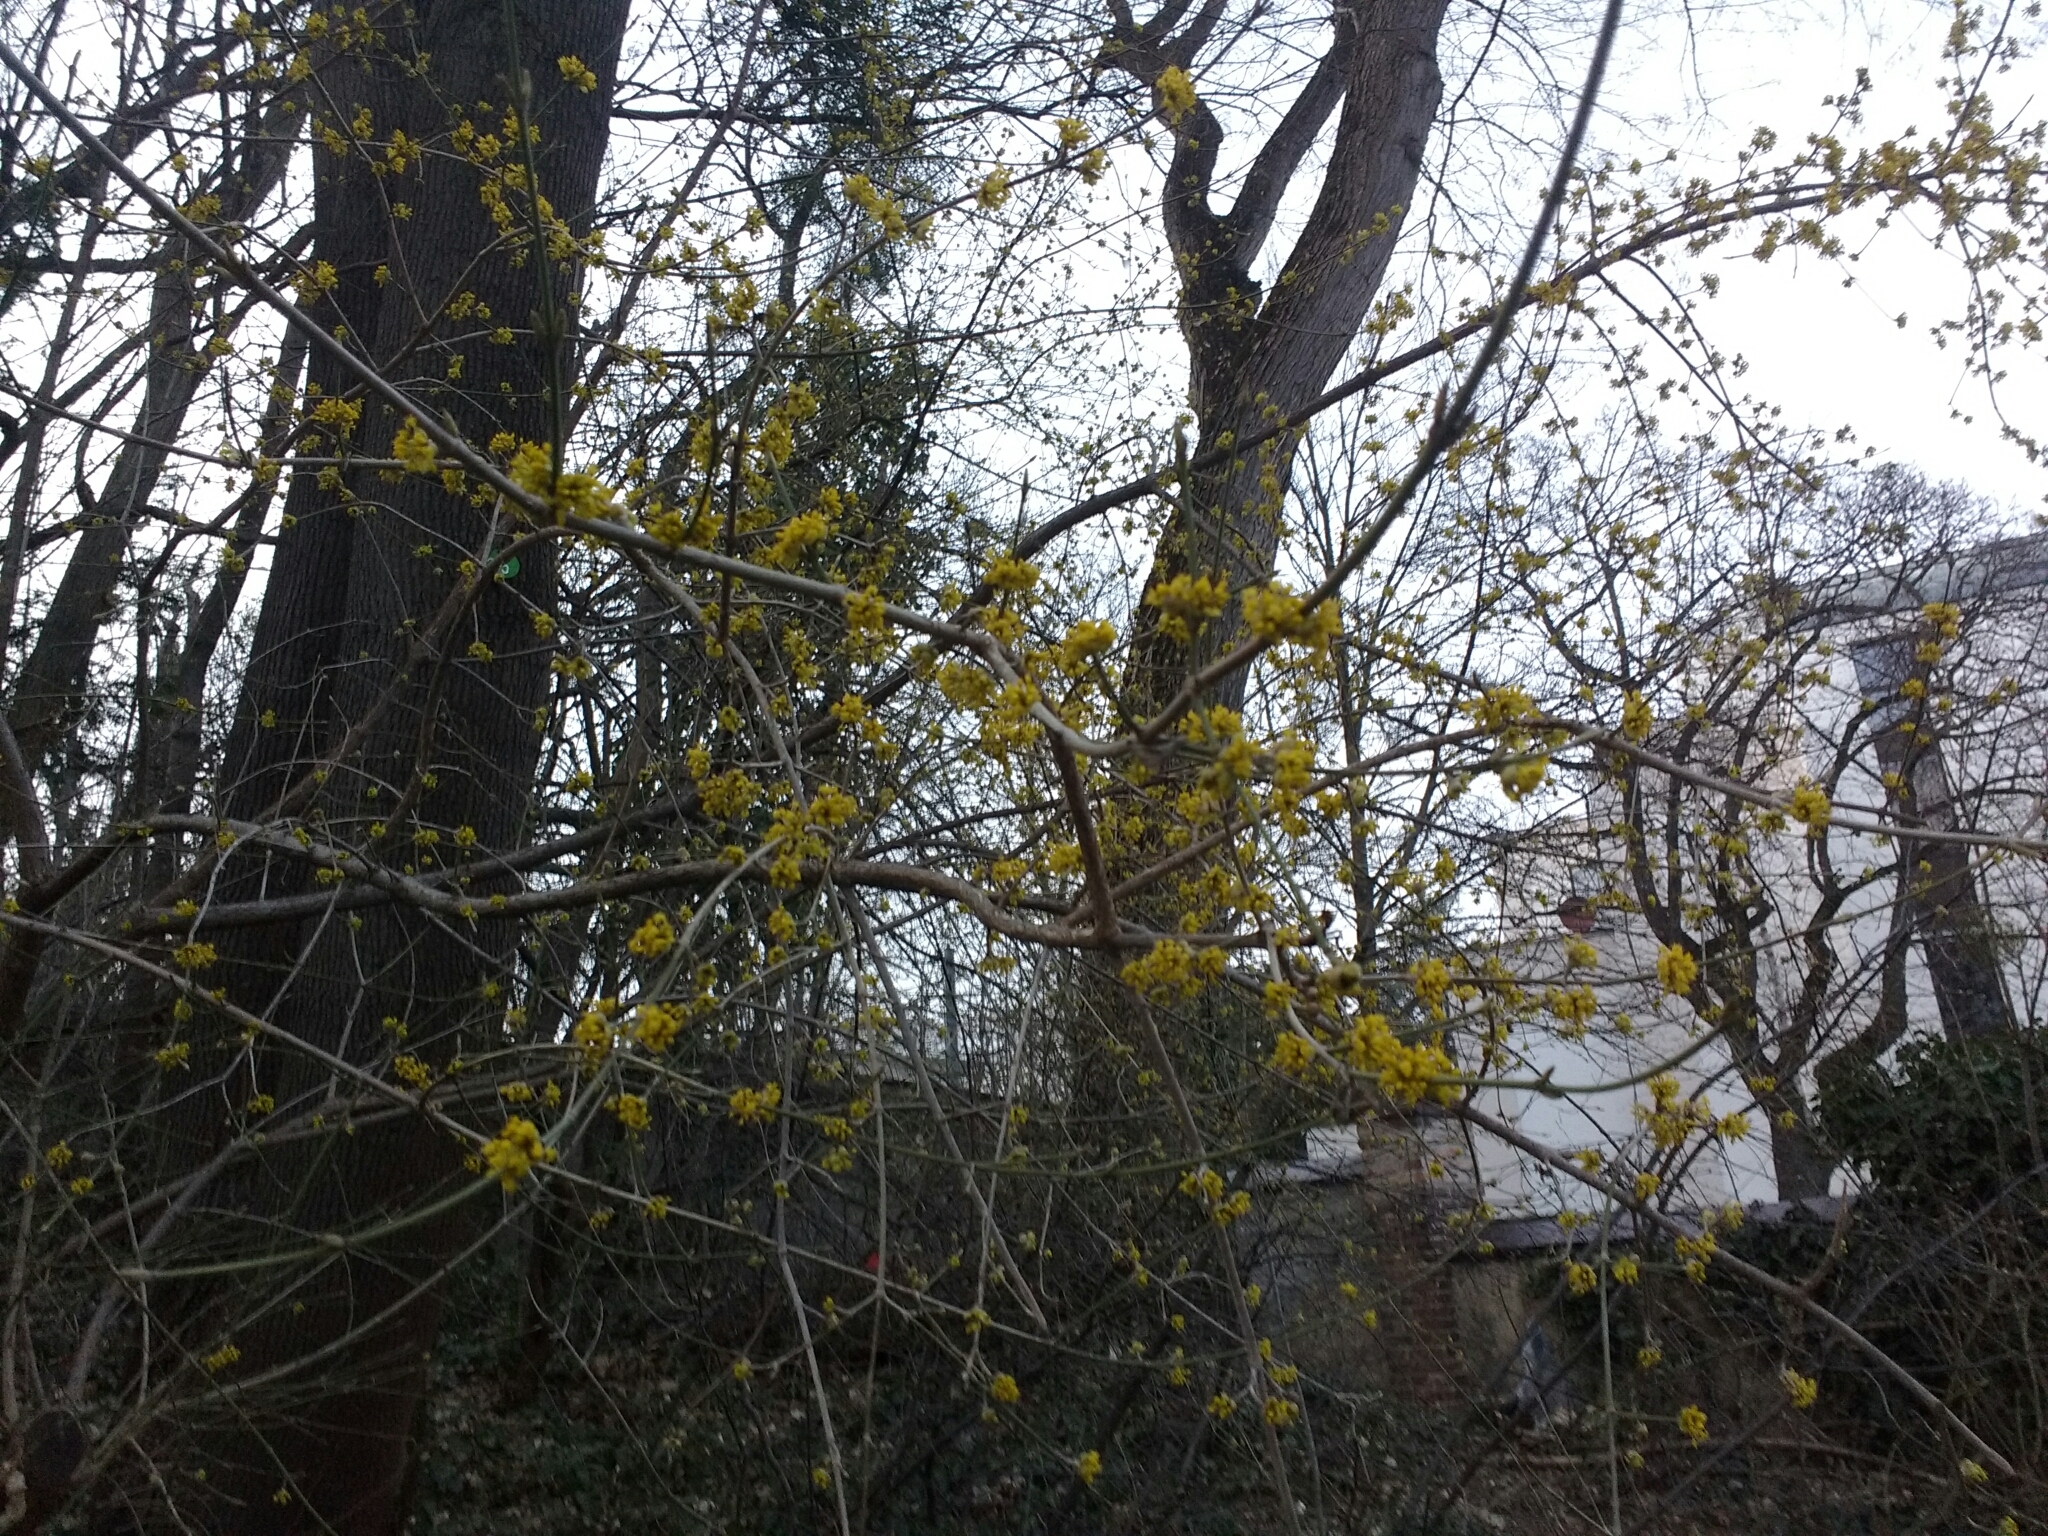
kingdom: Plantae
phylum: Tracheophyta
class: Magnoliopsida
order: Cornales
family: Cornaceae
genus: Cornus
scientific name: Cornus mas
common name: Cornelian-cherry
